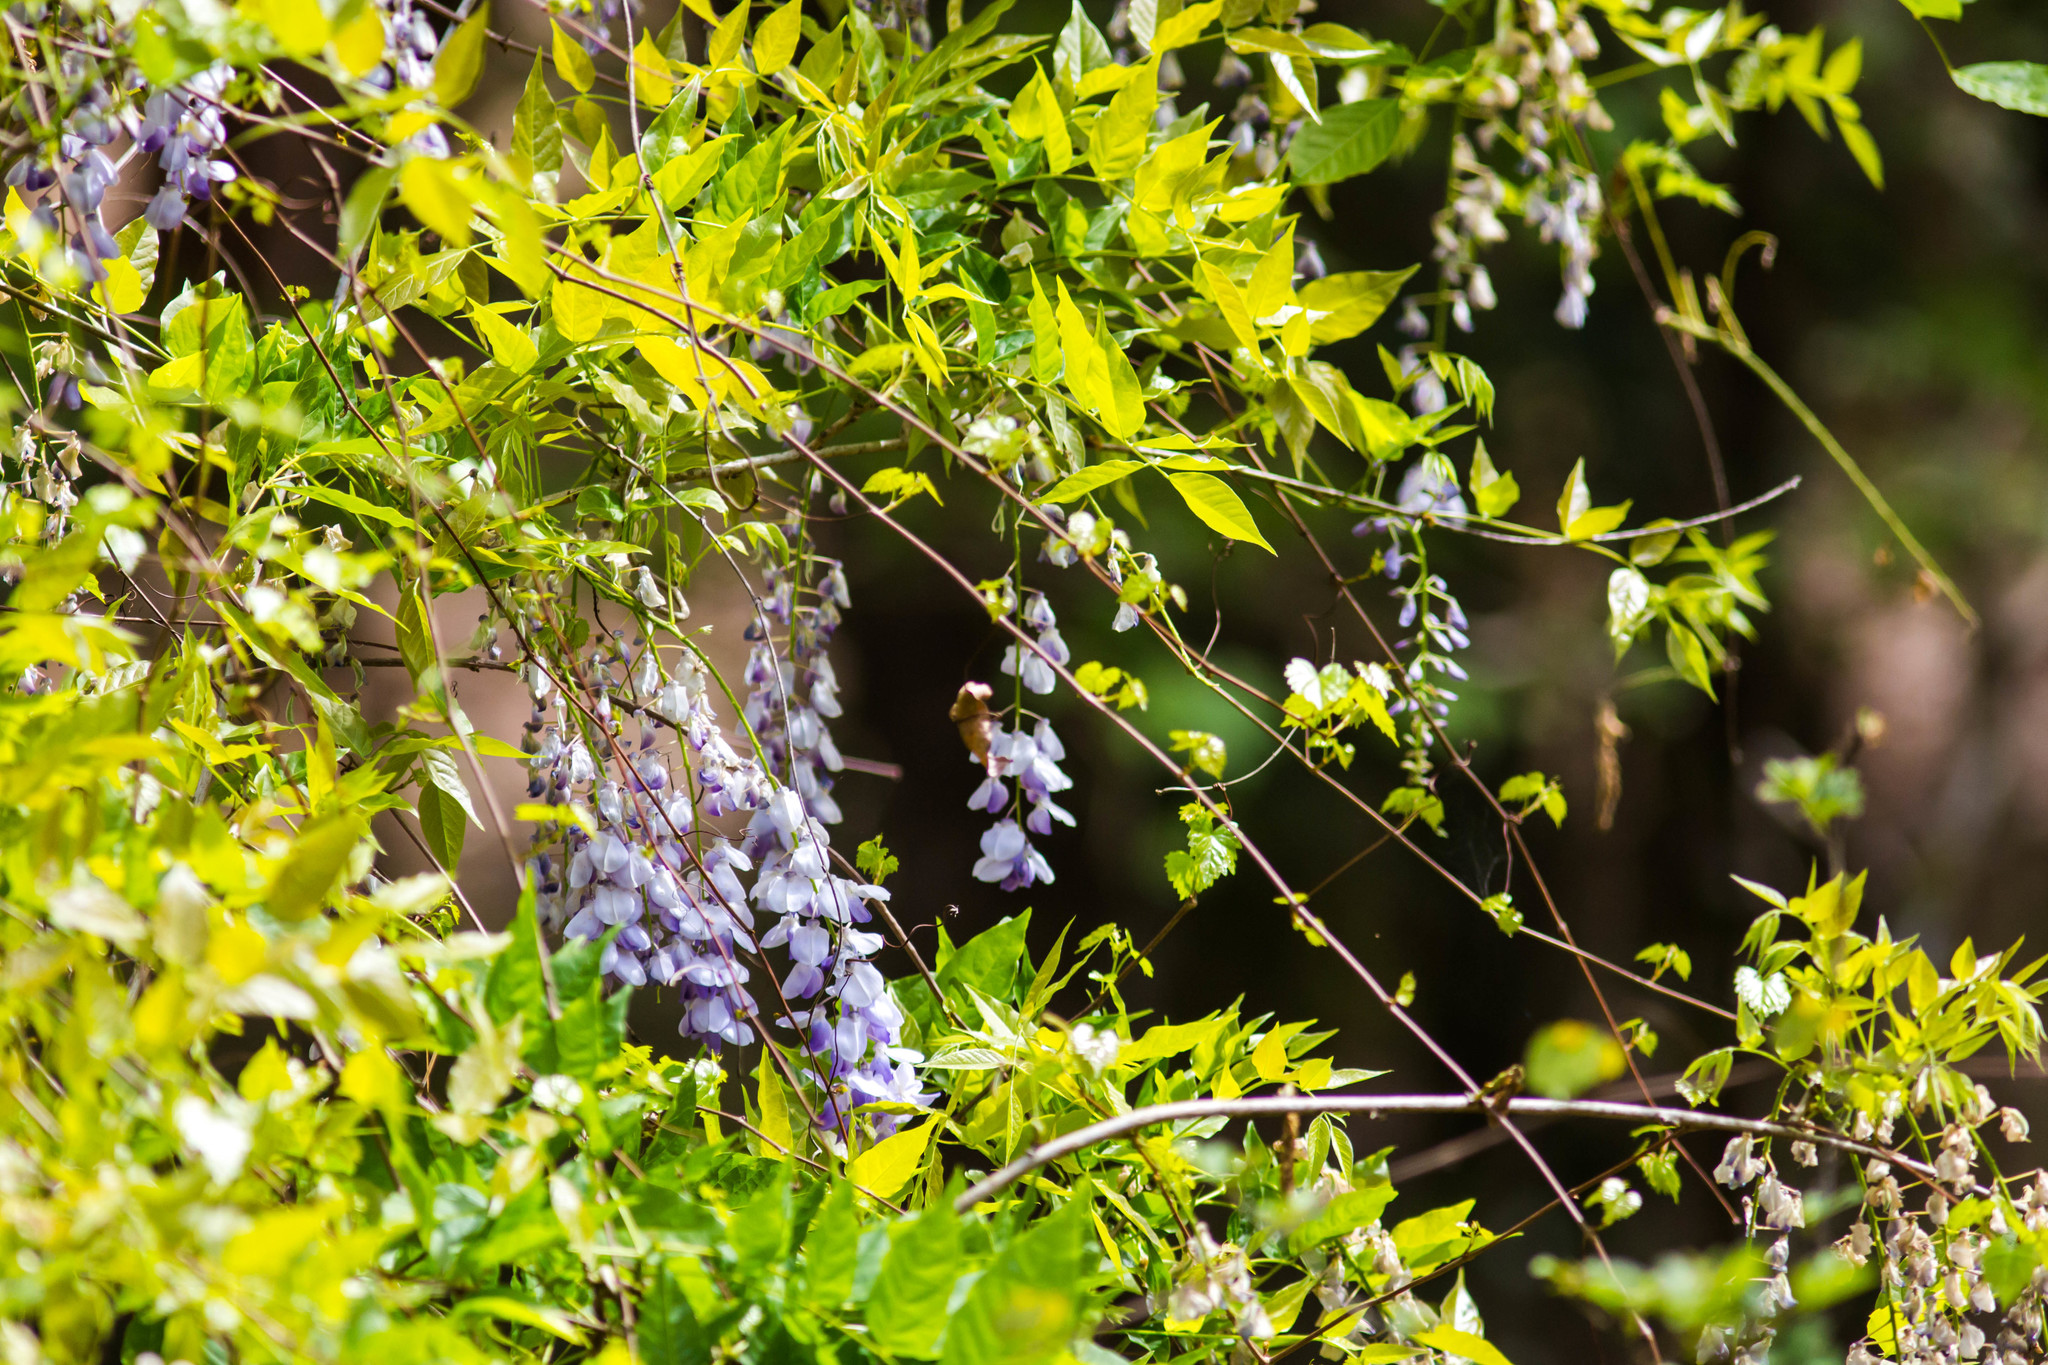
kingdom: Plantae
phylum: Tracheophyta
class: Magnoliopsida
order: Fabales
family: Fabaceae
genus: Wisteria
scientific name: Wisteria sinensis
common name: Chinese wisteria
